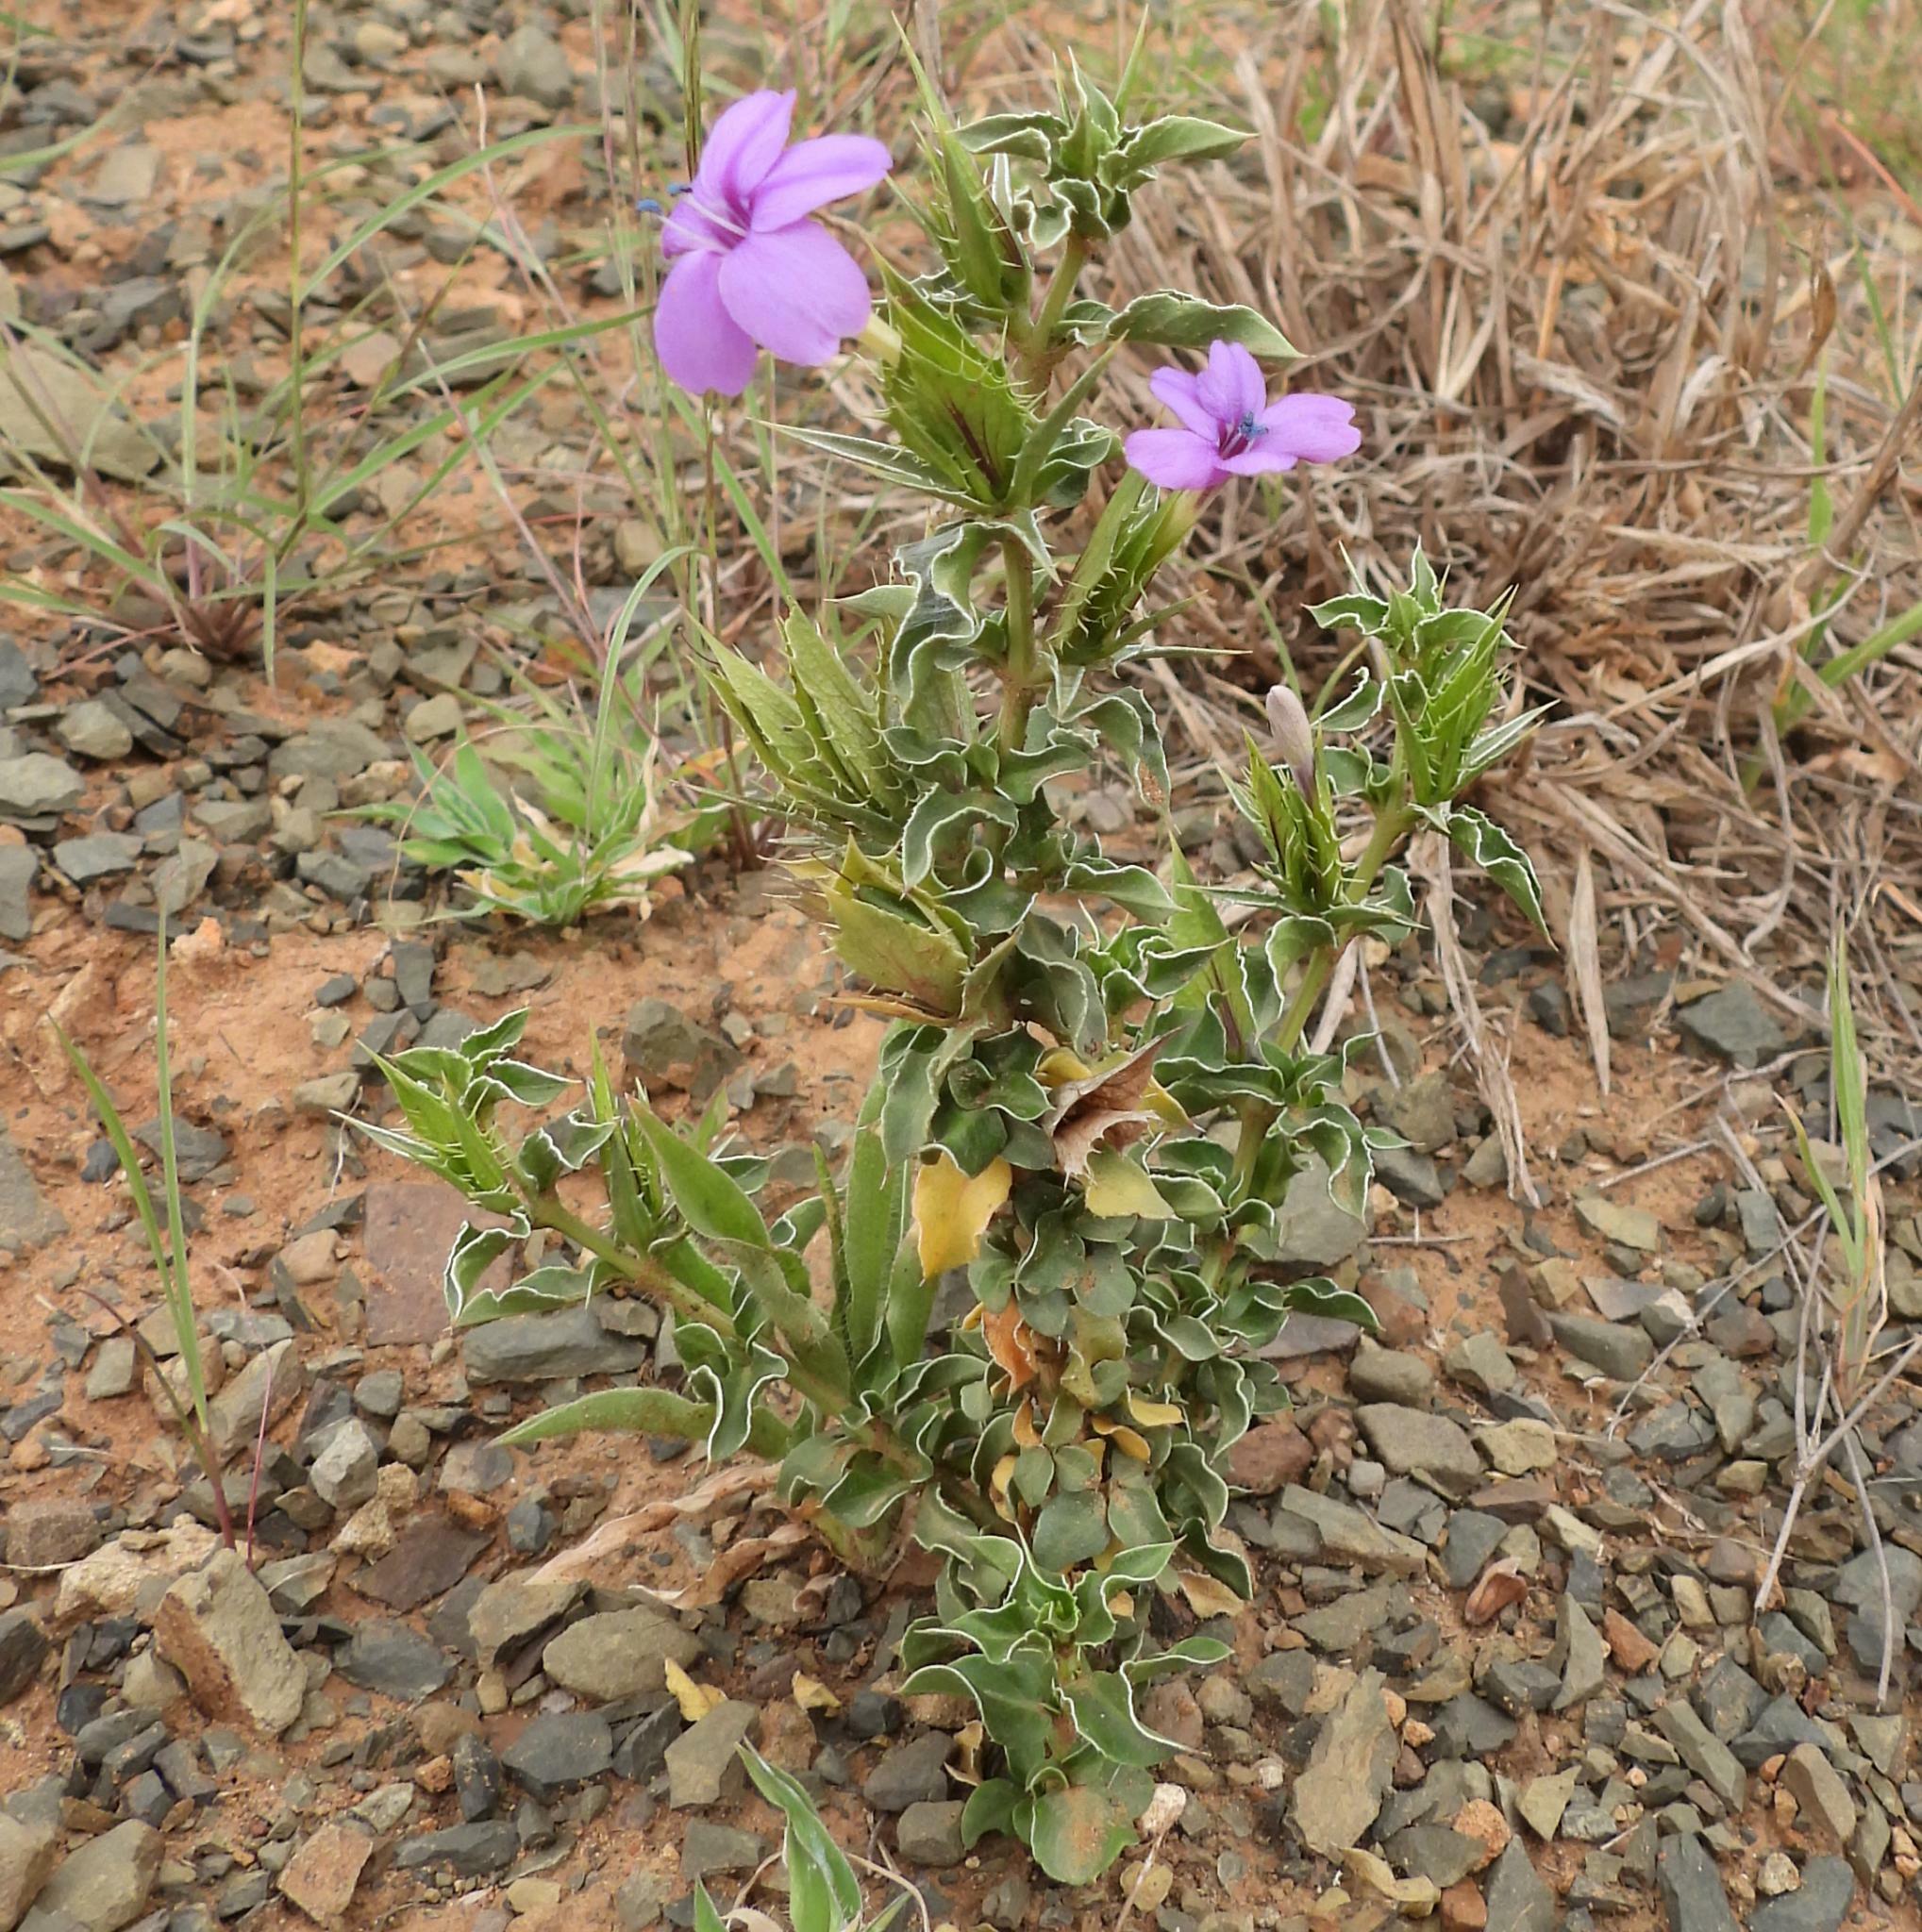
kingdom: Plantae
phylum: Tracheophyta
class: Magnoliopsida
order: Lamiales
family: Acanthaceae
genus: Barleria
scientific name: Barleria pungens
